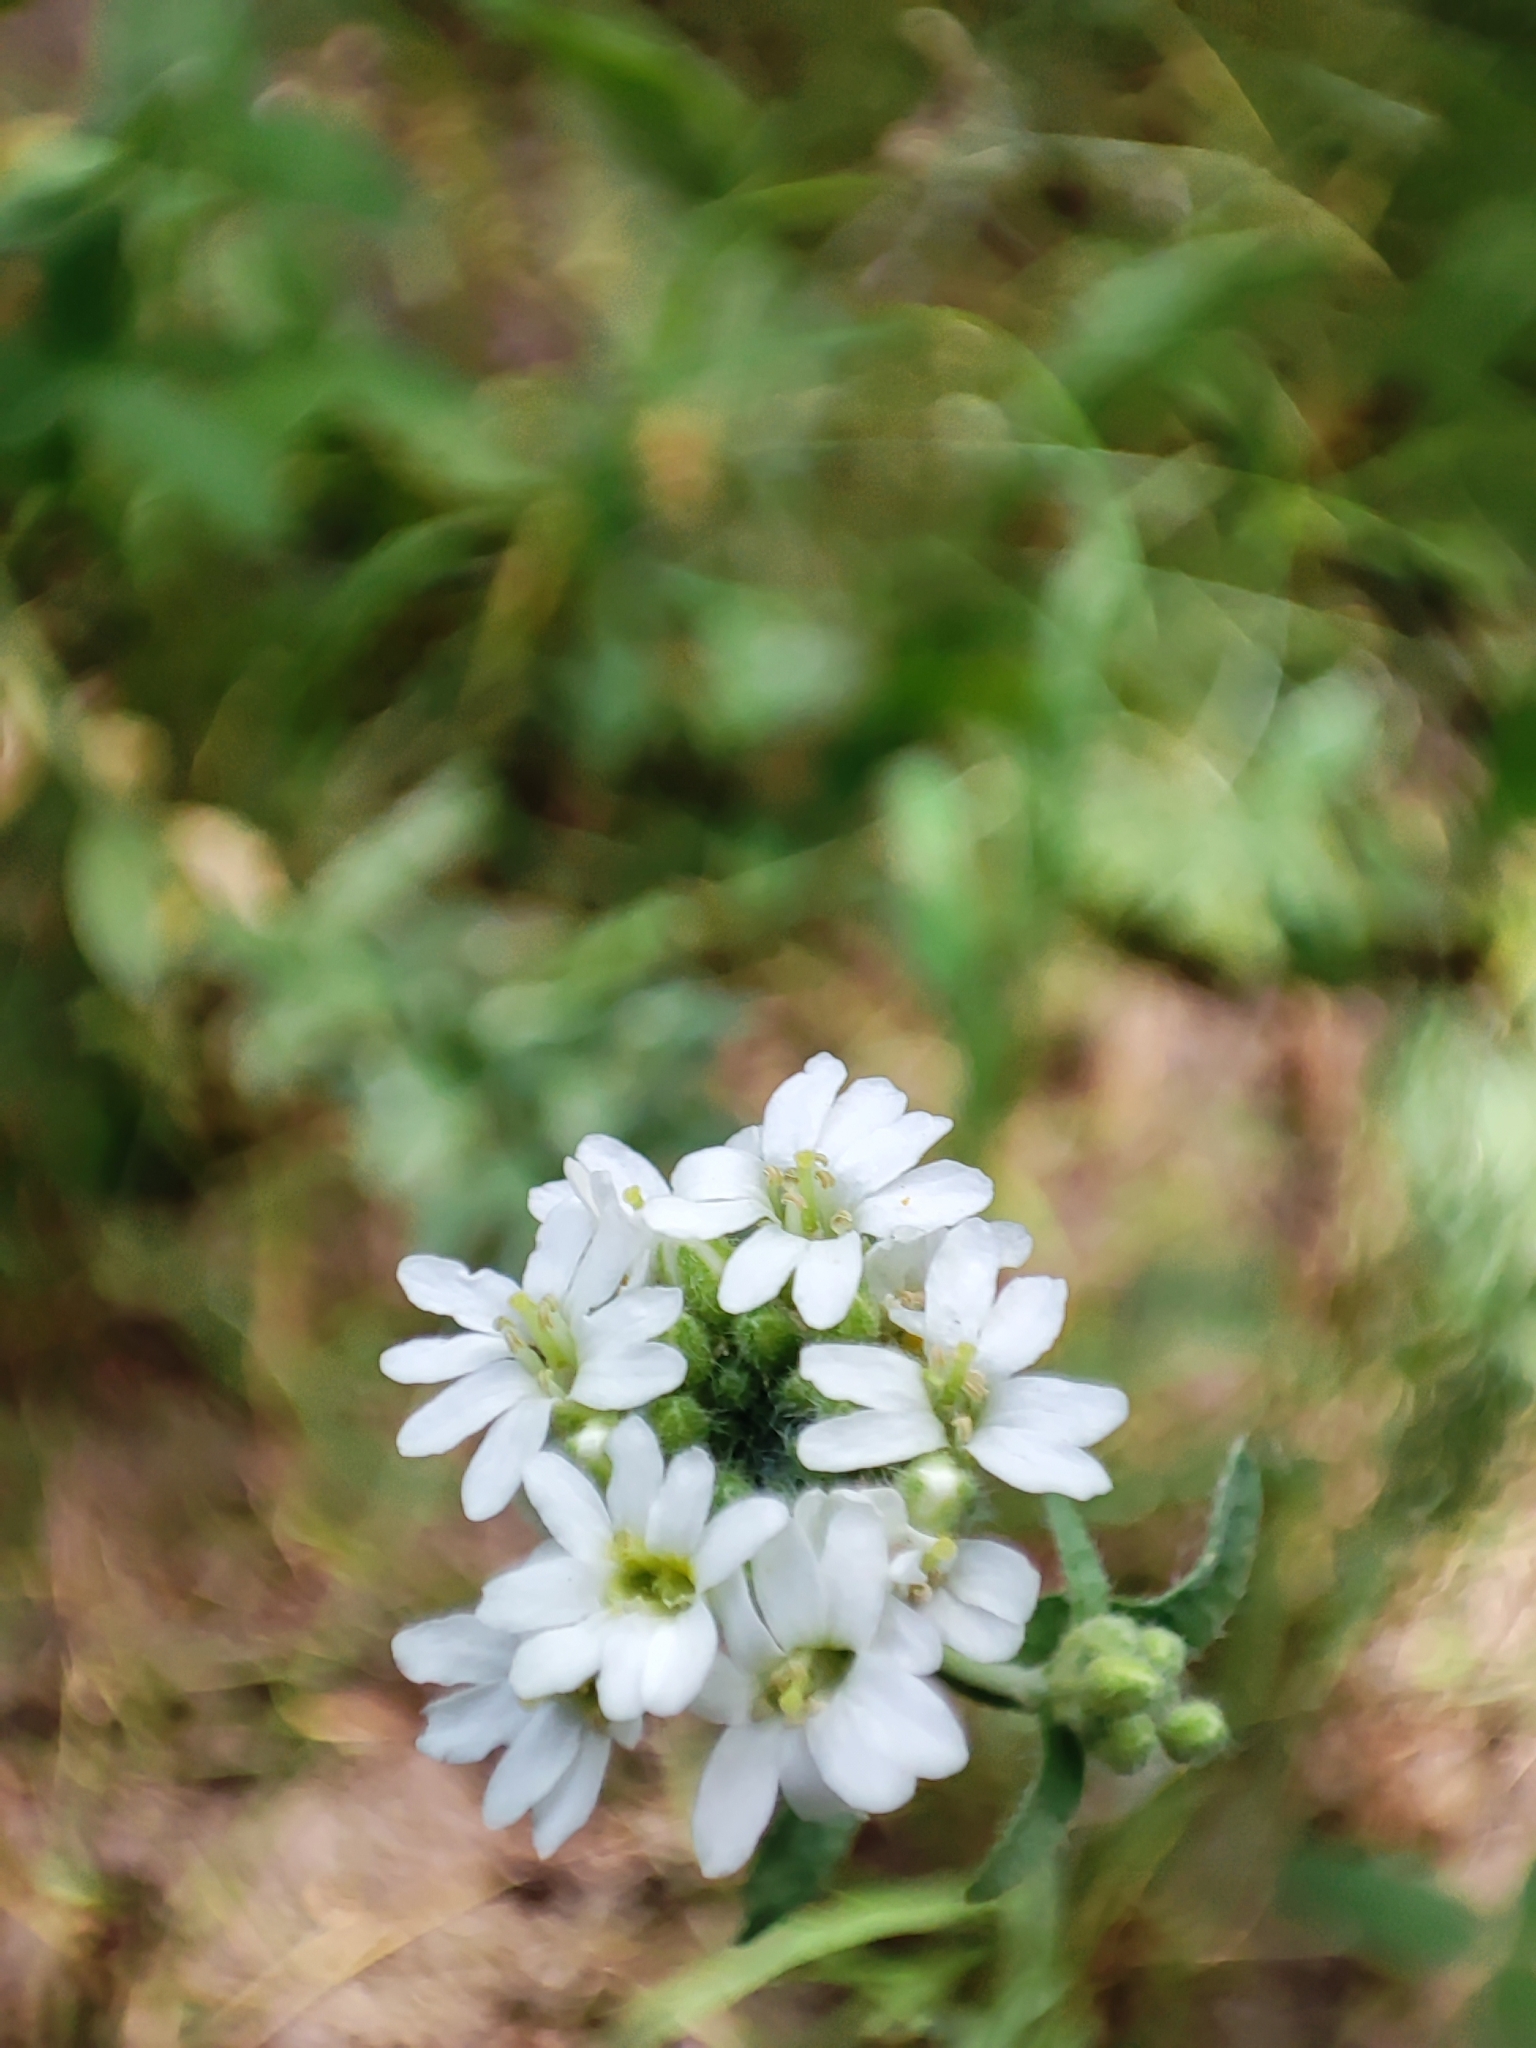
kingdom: Plantae
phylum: Tracheophyta
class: Magnoliopsida
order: Brassicales
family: Brassicaceae
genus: Berteroa
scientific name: Berteroa incana
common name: Hoary alison
